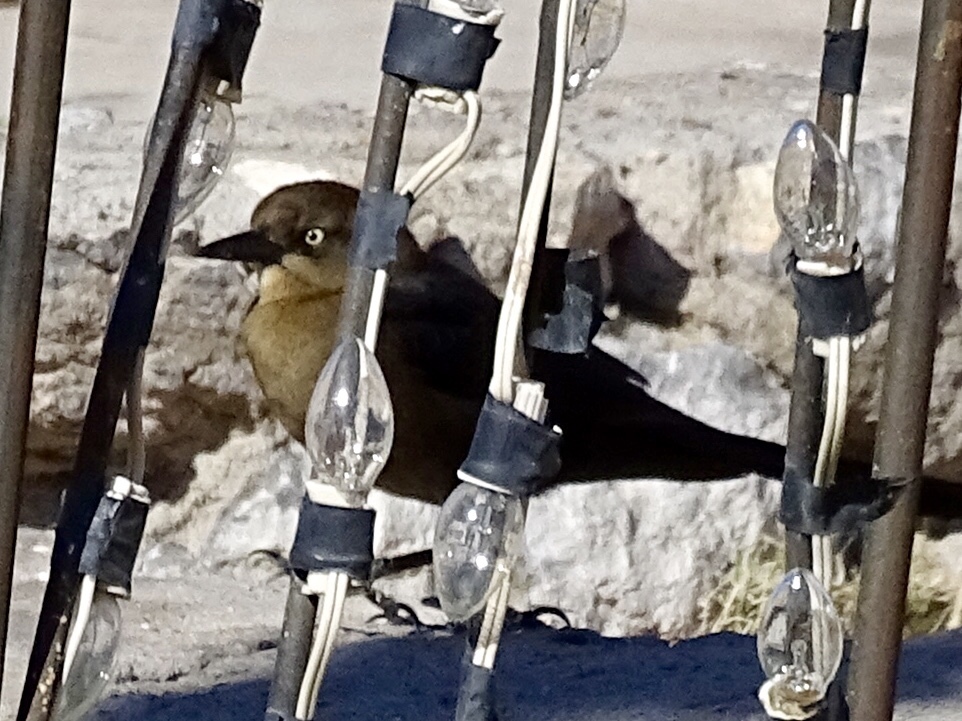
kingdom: Animalia
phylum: Chordata
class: Aves
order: Passeriformes
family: Icteridae
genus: Quiscalus
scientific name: Quiscalus mexicanus
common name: Great-tailed grackle
